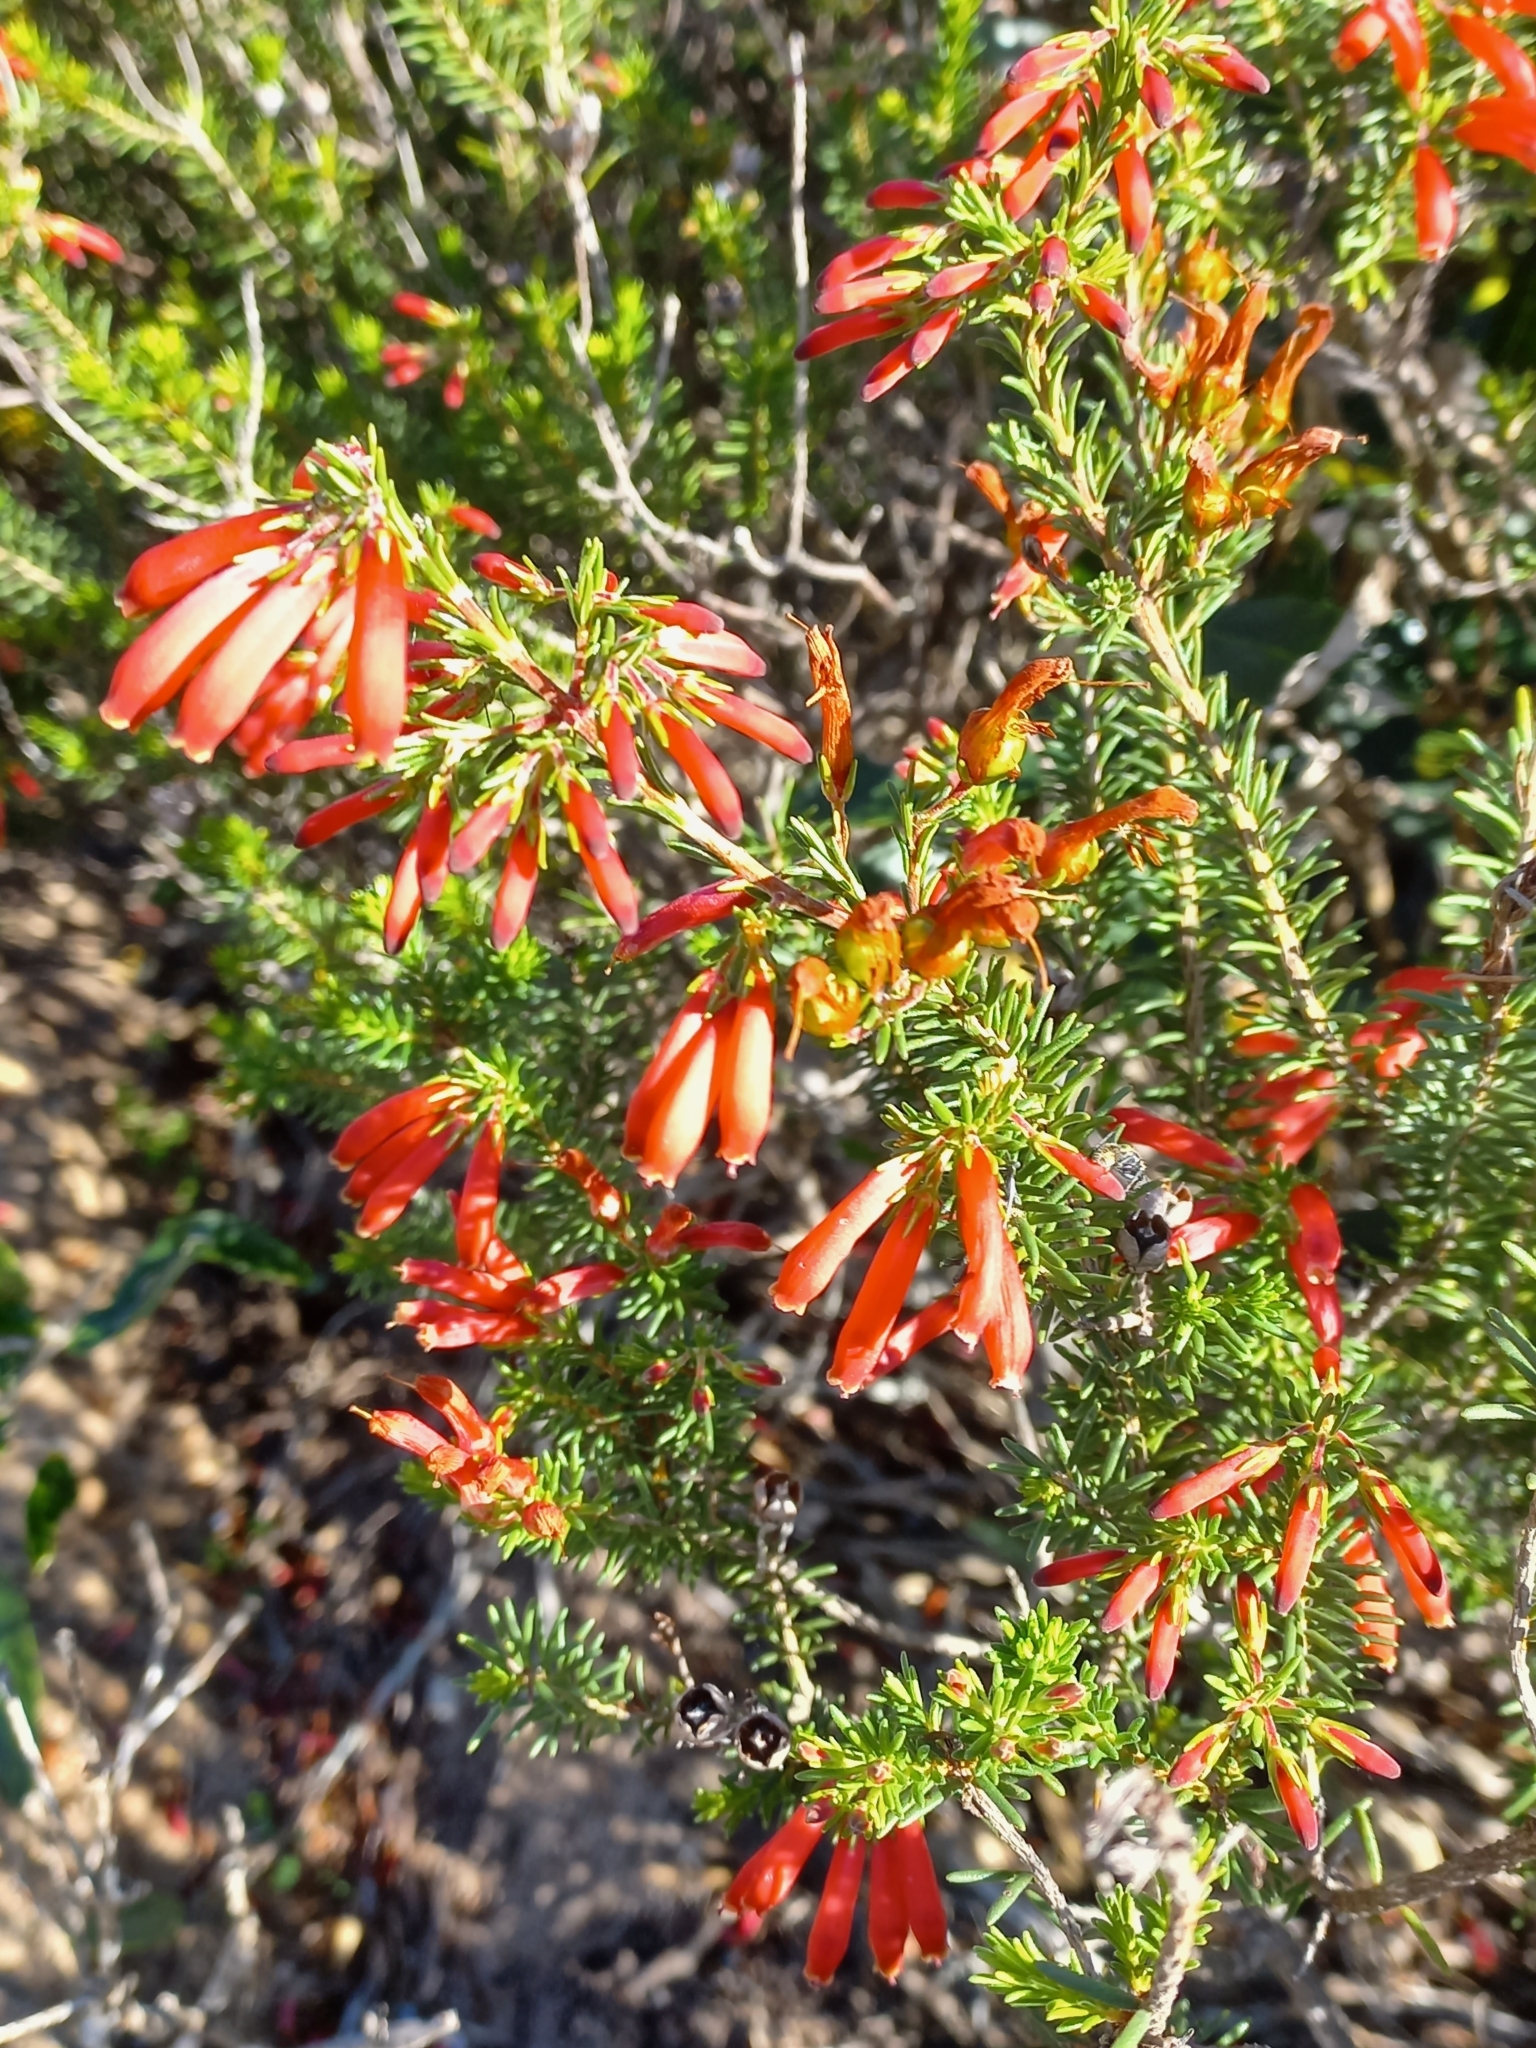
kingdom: Plantae
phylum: Tracheophyta
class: Magnoliopsida
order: Ericales
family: Ericaceae
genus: Erica
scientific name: Erica chloroloma
